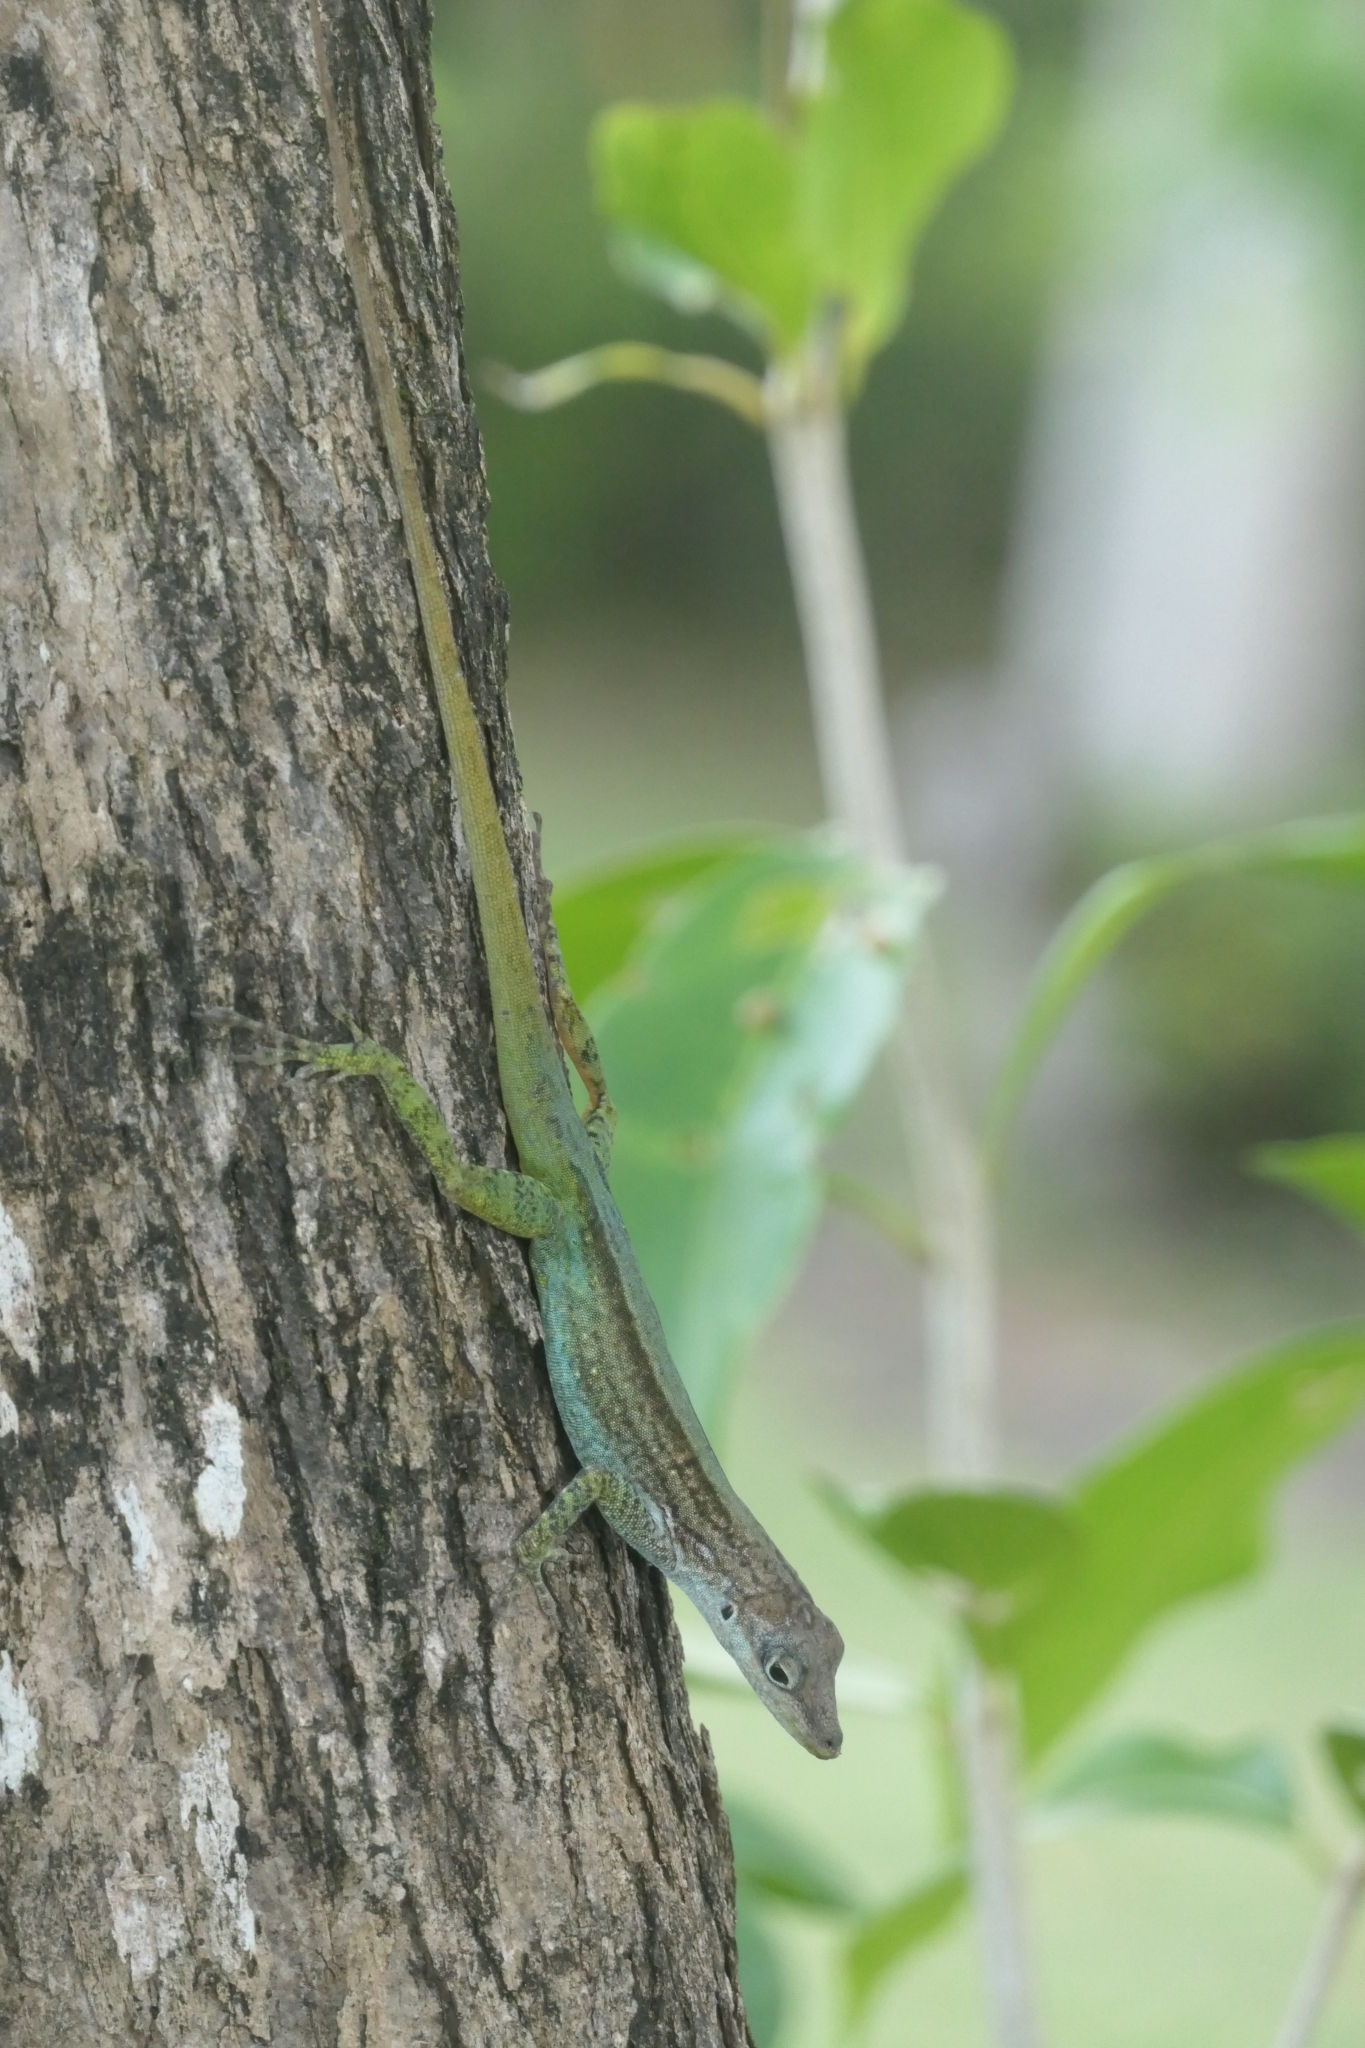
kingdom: Animalia
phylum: Chordata
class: Squamata
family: Dactyloidae
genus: Anolis
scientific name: Anolis roquet
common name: Martinique anole
